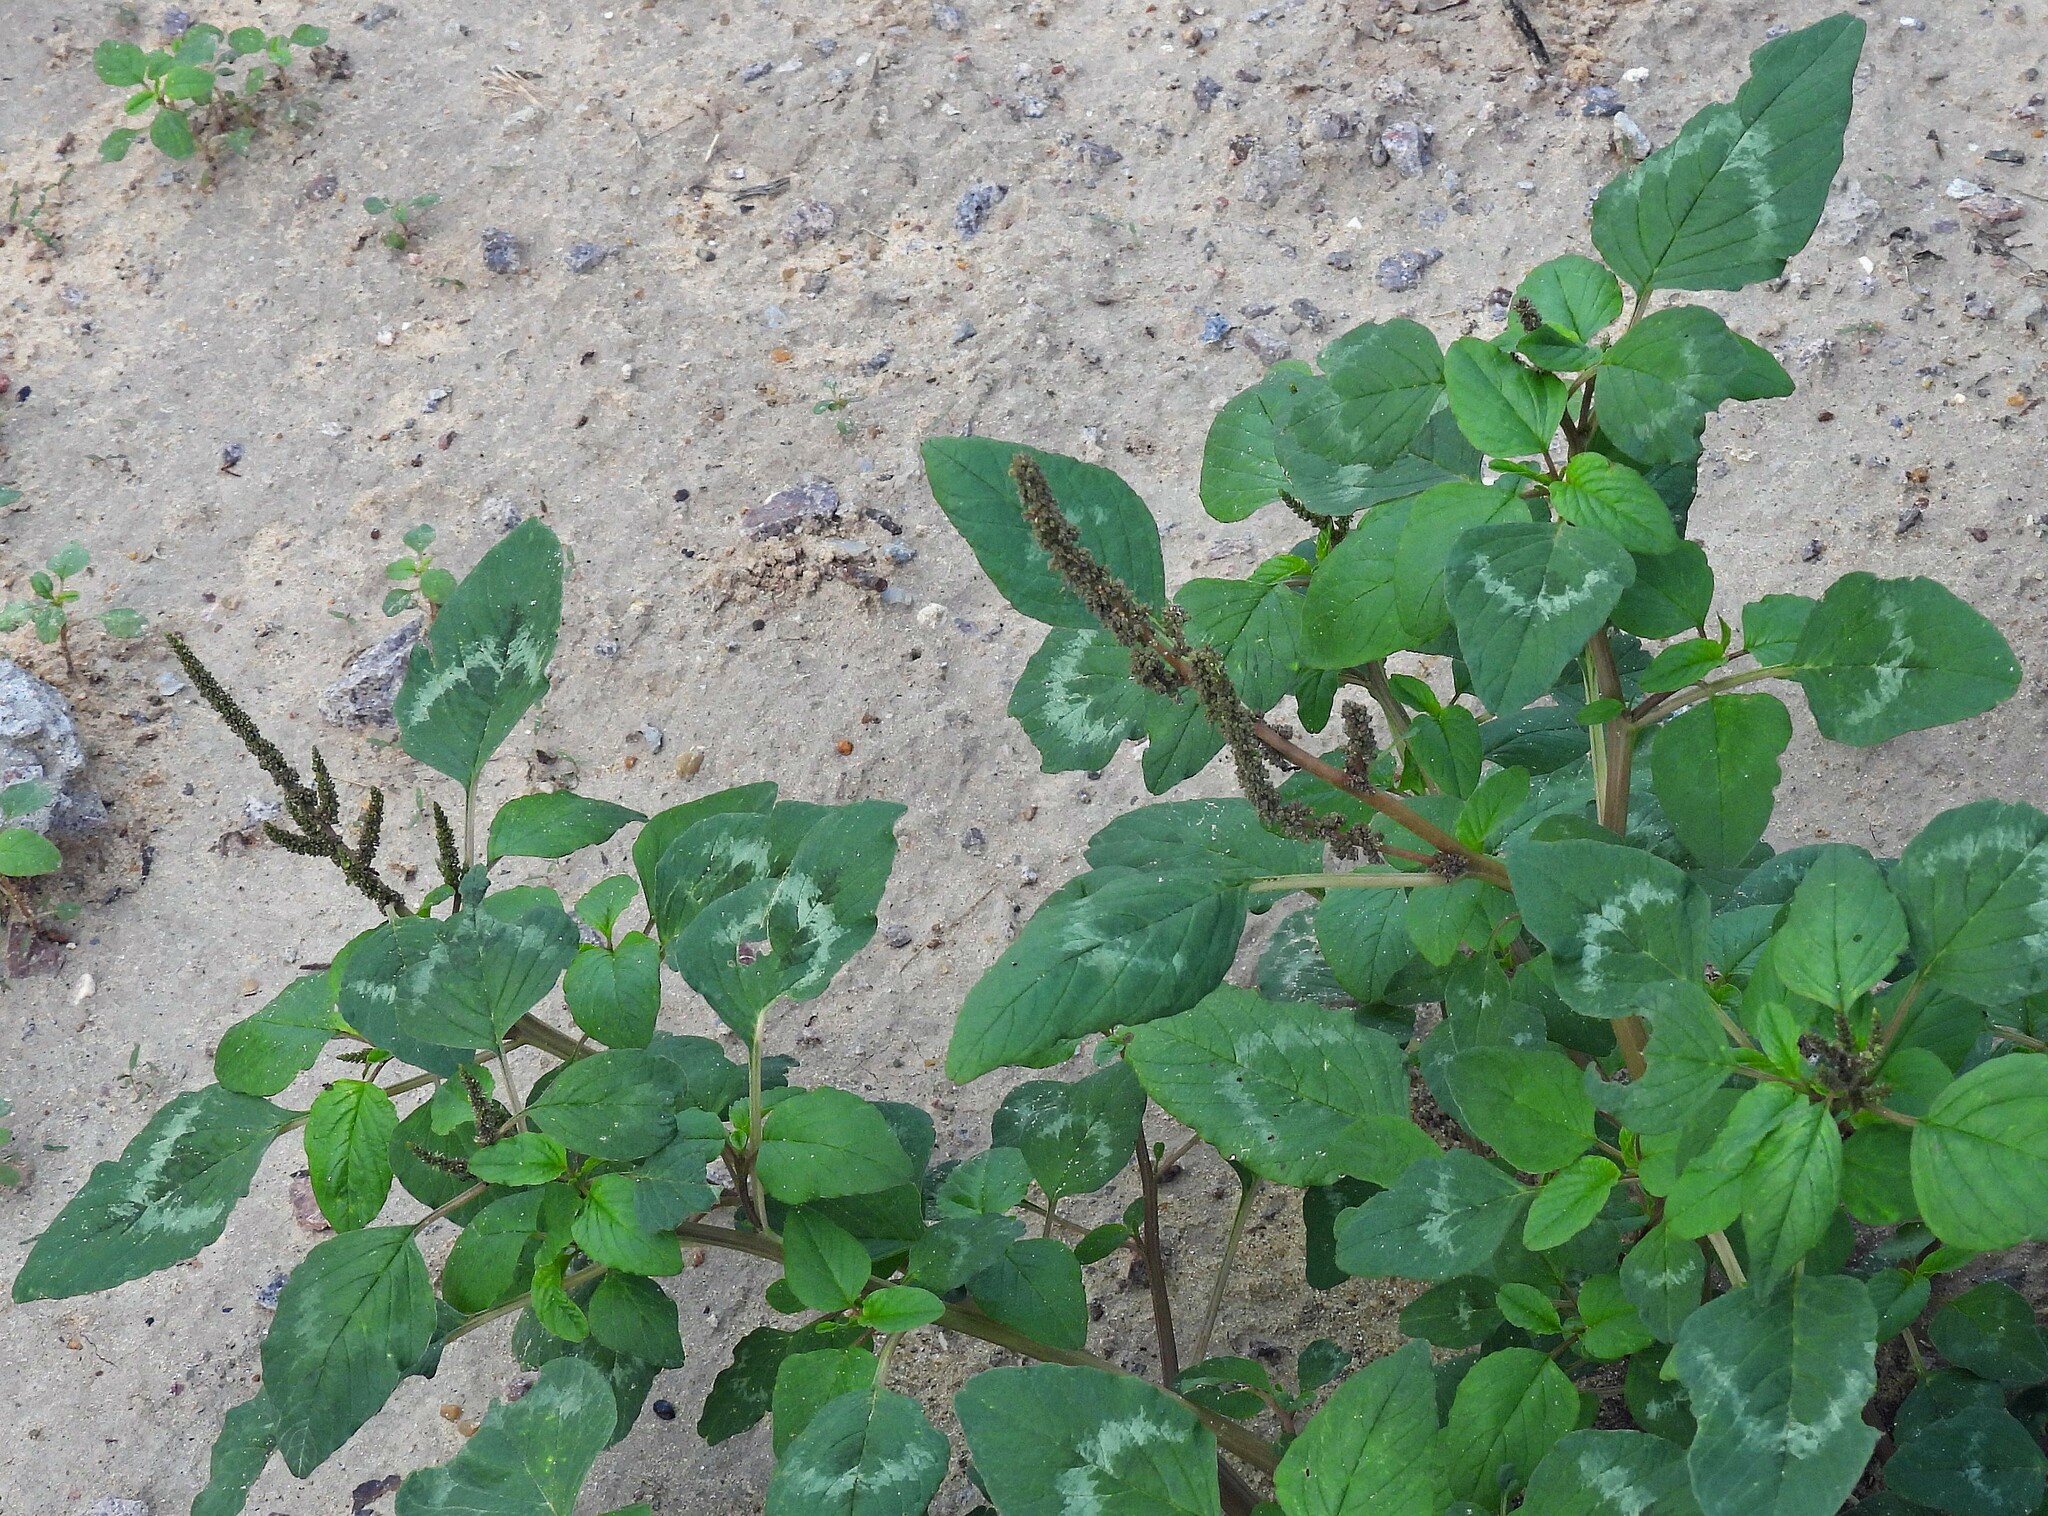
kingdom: Plantae
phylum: Tracheophyta
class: Magnoliopsida
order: Caryophyllales
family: Amaranthaceae
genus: Amaranthus
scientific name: Amaranthus viridis
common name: Slender amaranth
